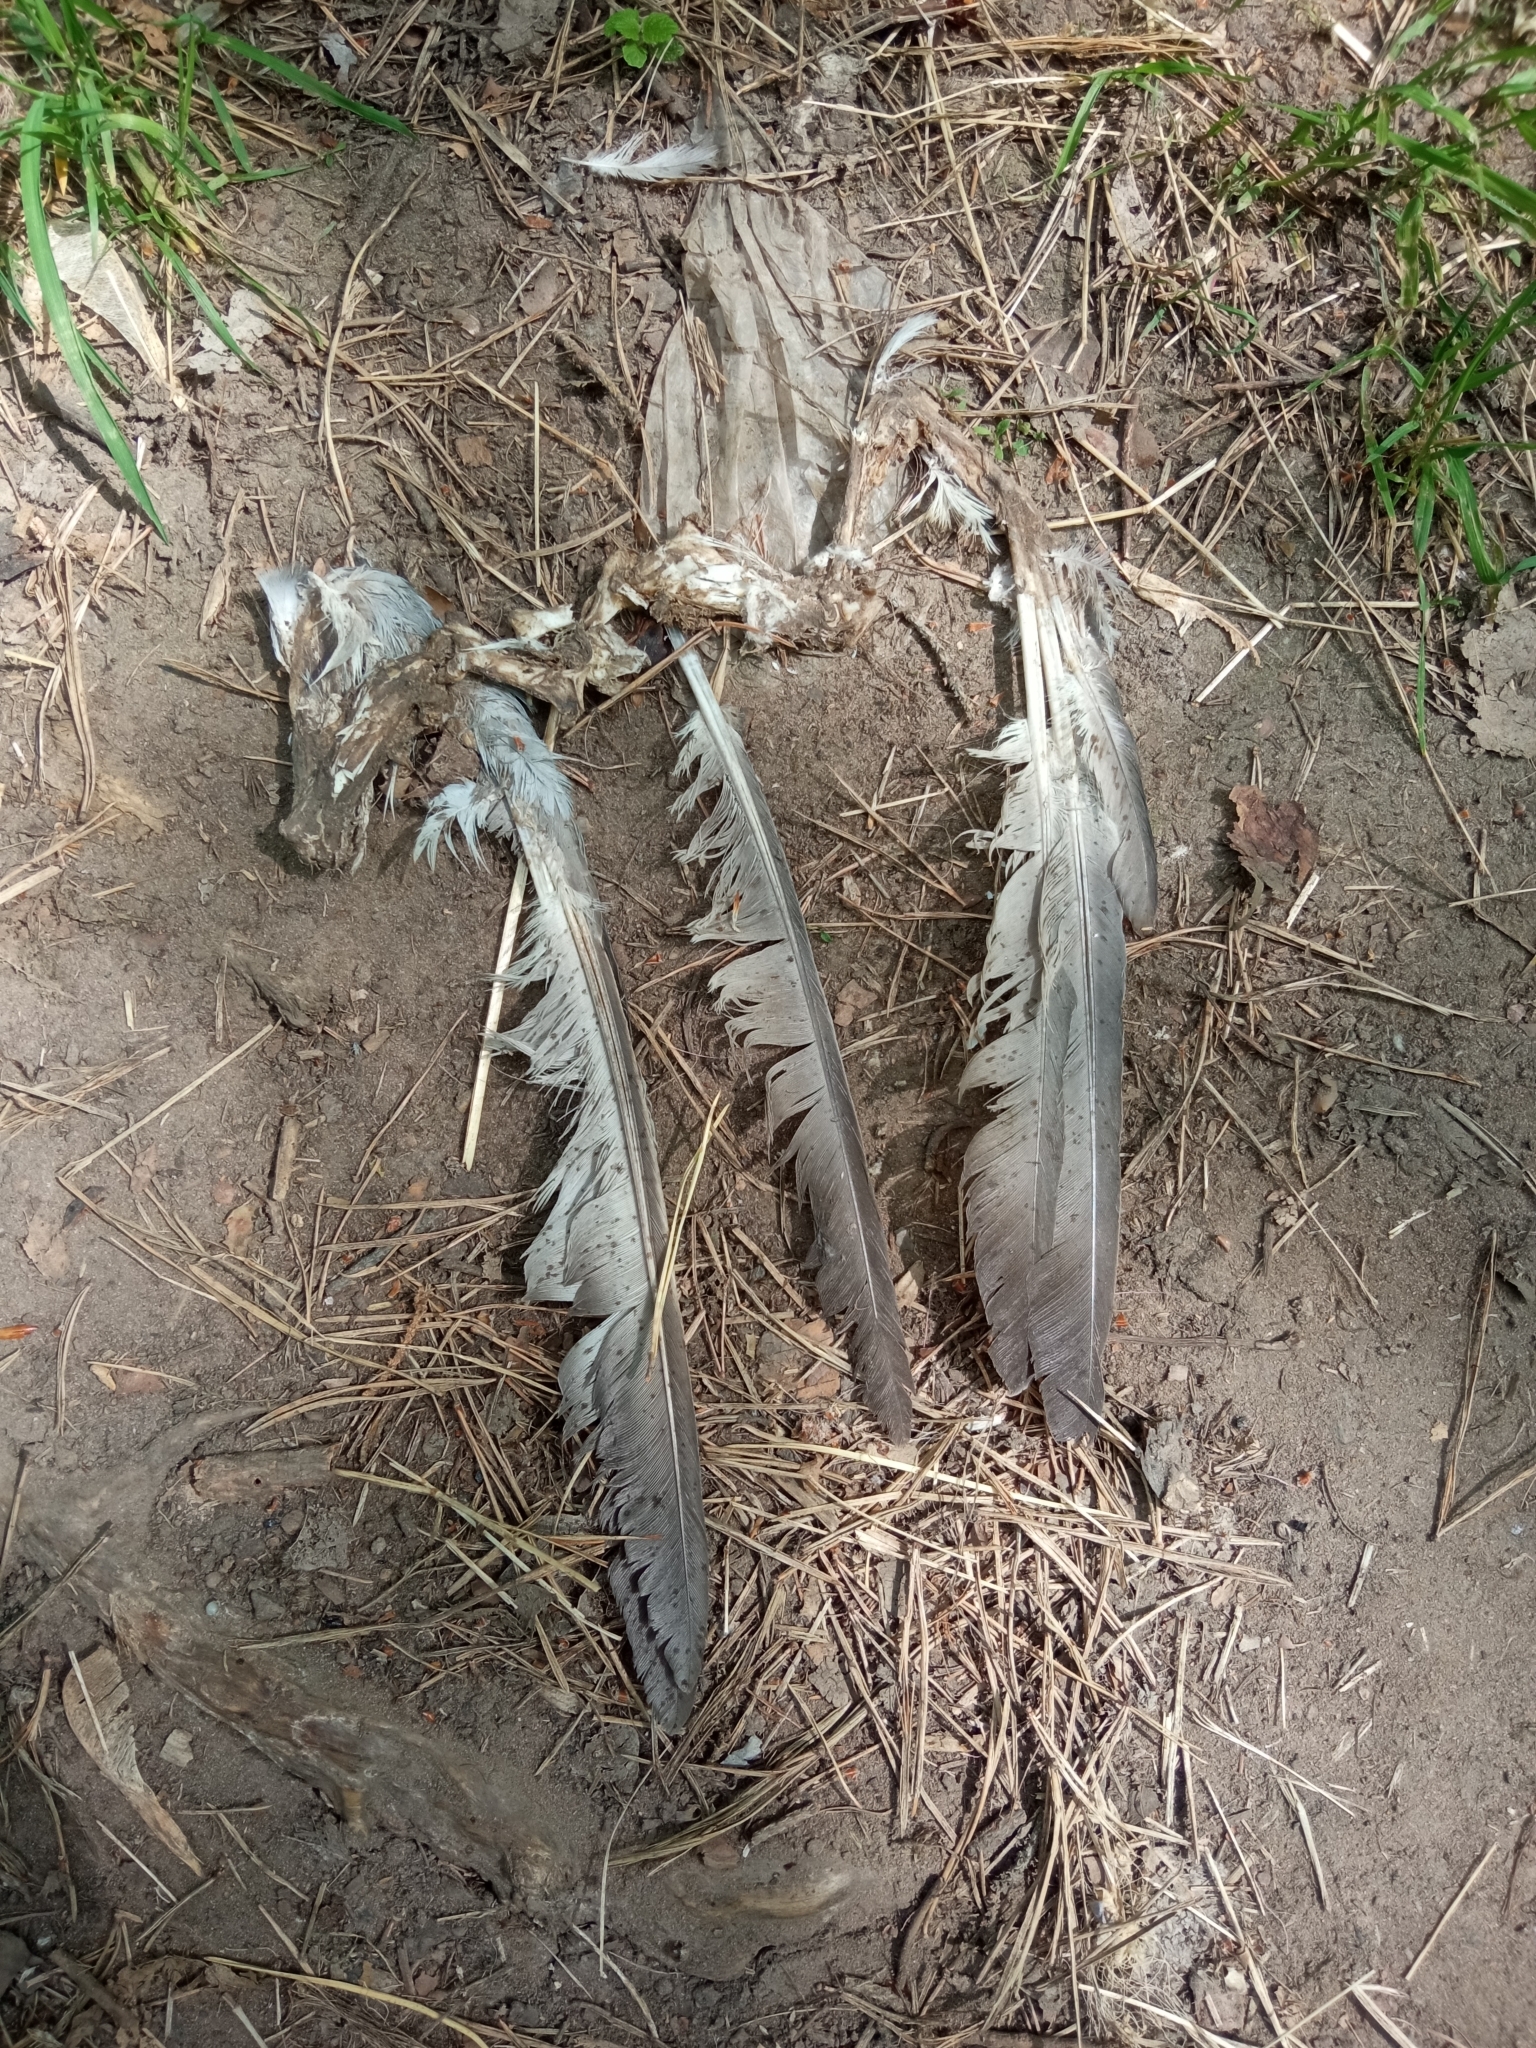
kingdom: Animalia
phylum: Chordata
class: Aves
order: Columbiformes
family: Columbidae
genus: Columba
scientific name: Columba livia
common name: Rock pigeon
